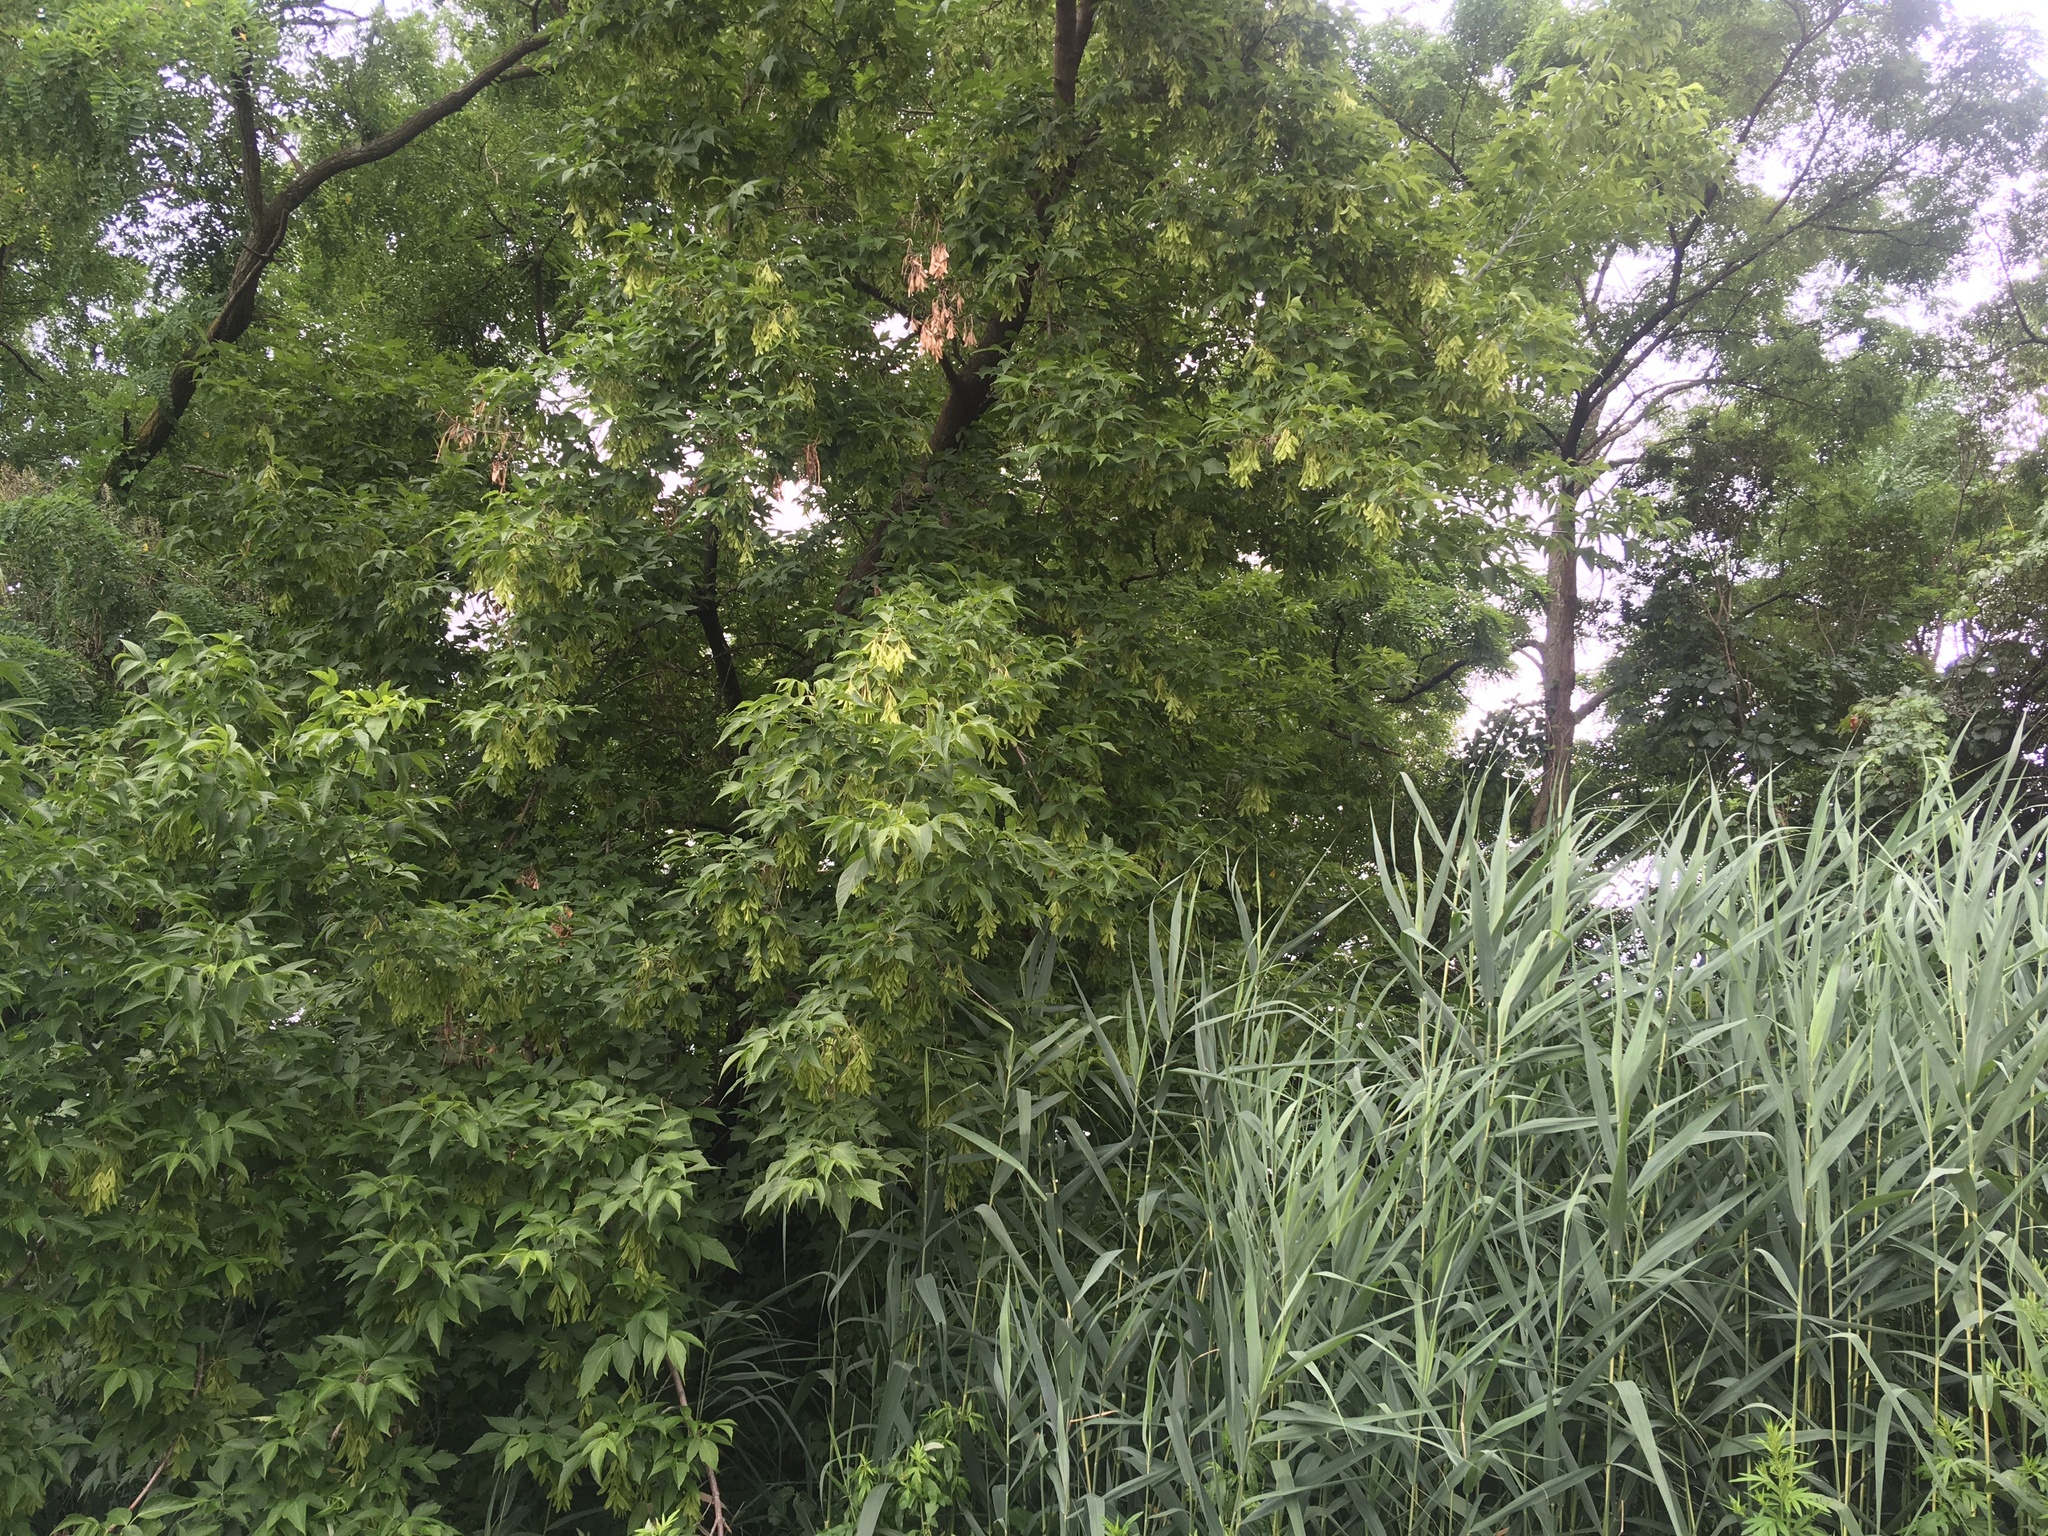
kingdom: Plantae
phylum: Tracheophyta
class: Magnoliopsida
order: Sapindales
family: Sapindaceae
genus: Acer
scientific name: Acer negundo
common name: Ashleaf maple
